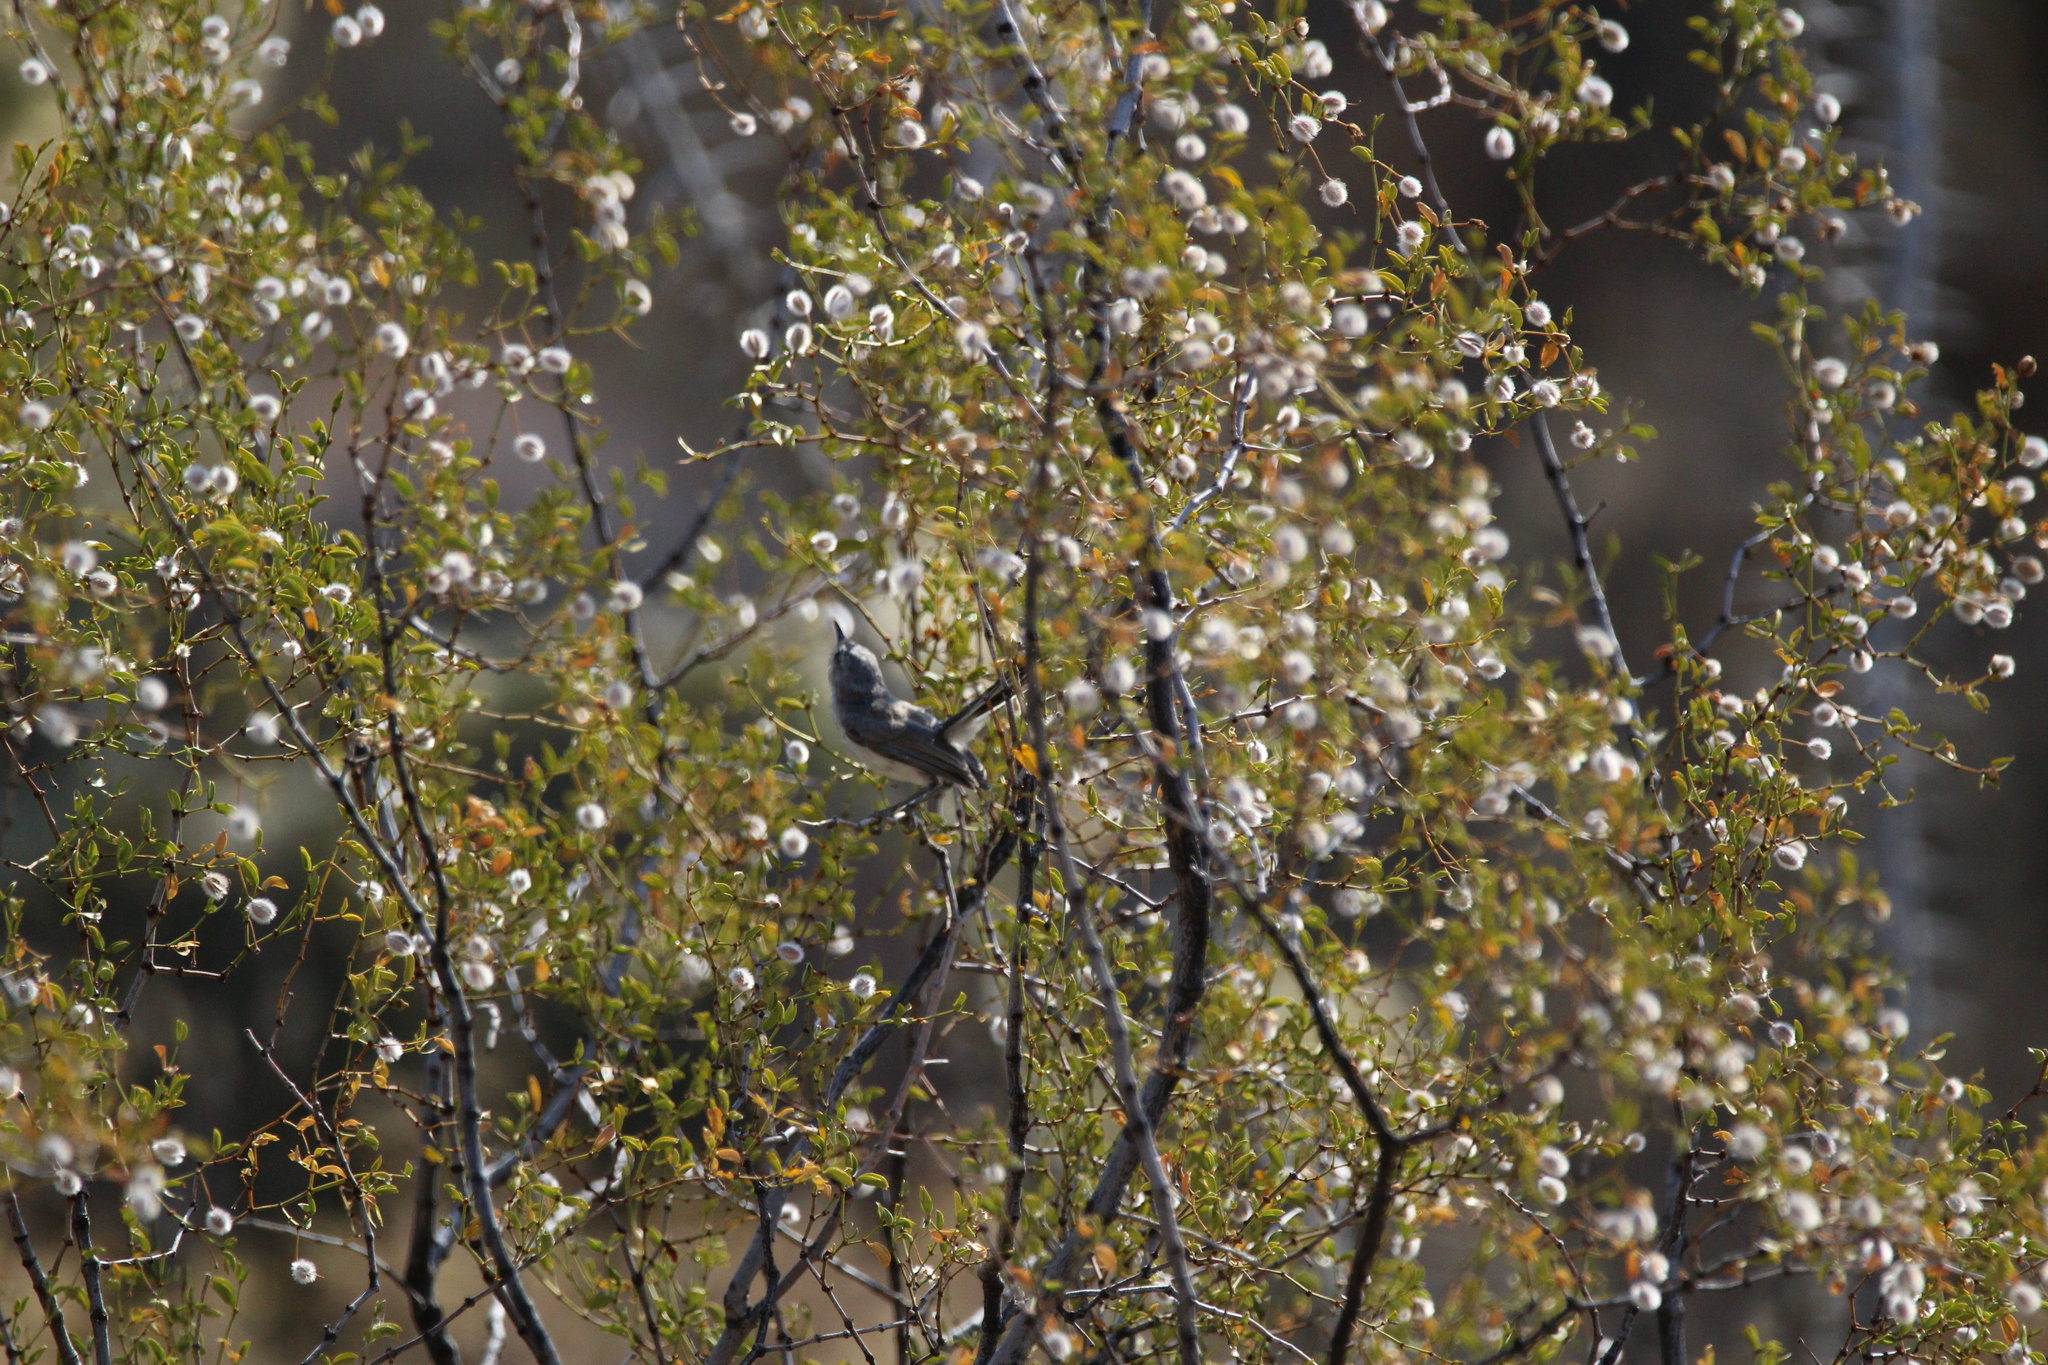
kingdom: Animalia
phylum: Chordata
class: Aves
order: Passeriformes
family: Polioptilidae
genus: Polioptila
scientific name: Polioptila melanura
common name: Black-tailed gnatcatcher
